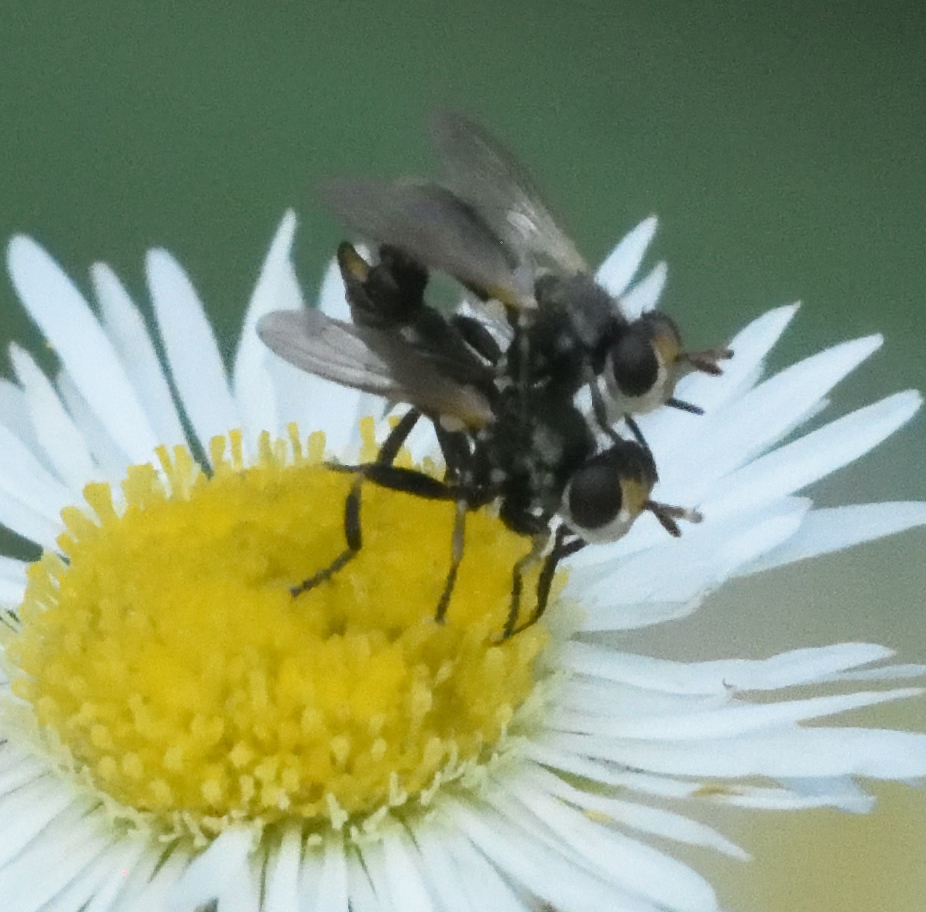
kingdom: Animalia
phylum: Arthropoda
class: Insecta
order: Diptera
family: Conopidae
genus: Thecophora
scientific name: Thecophora propinqua
